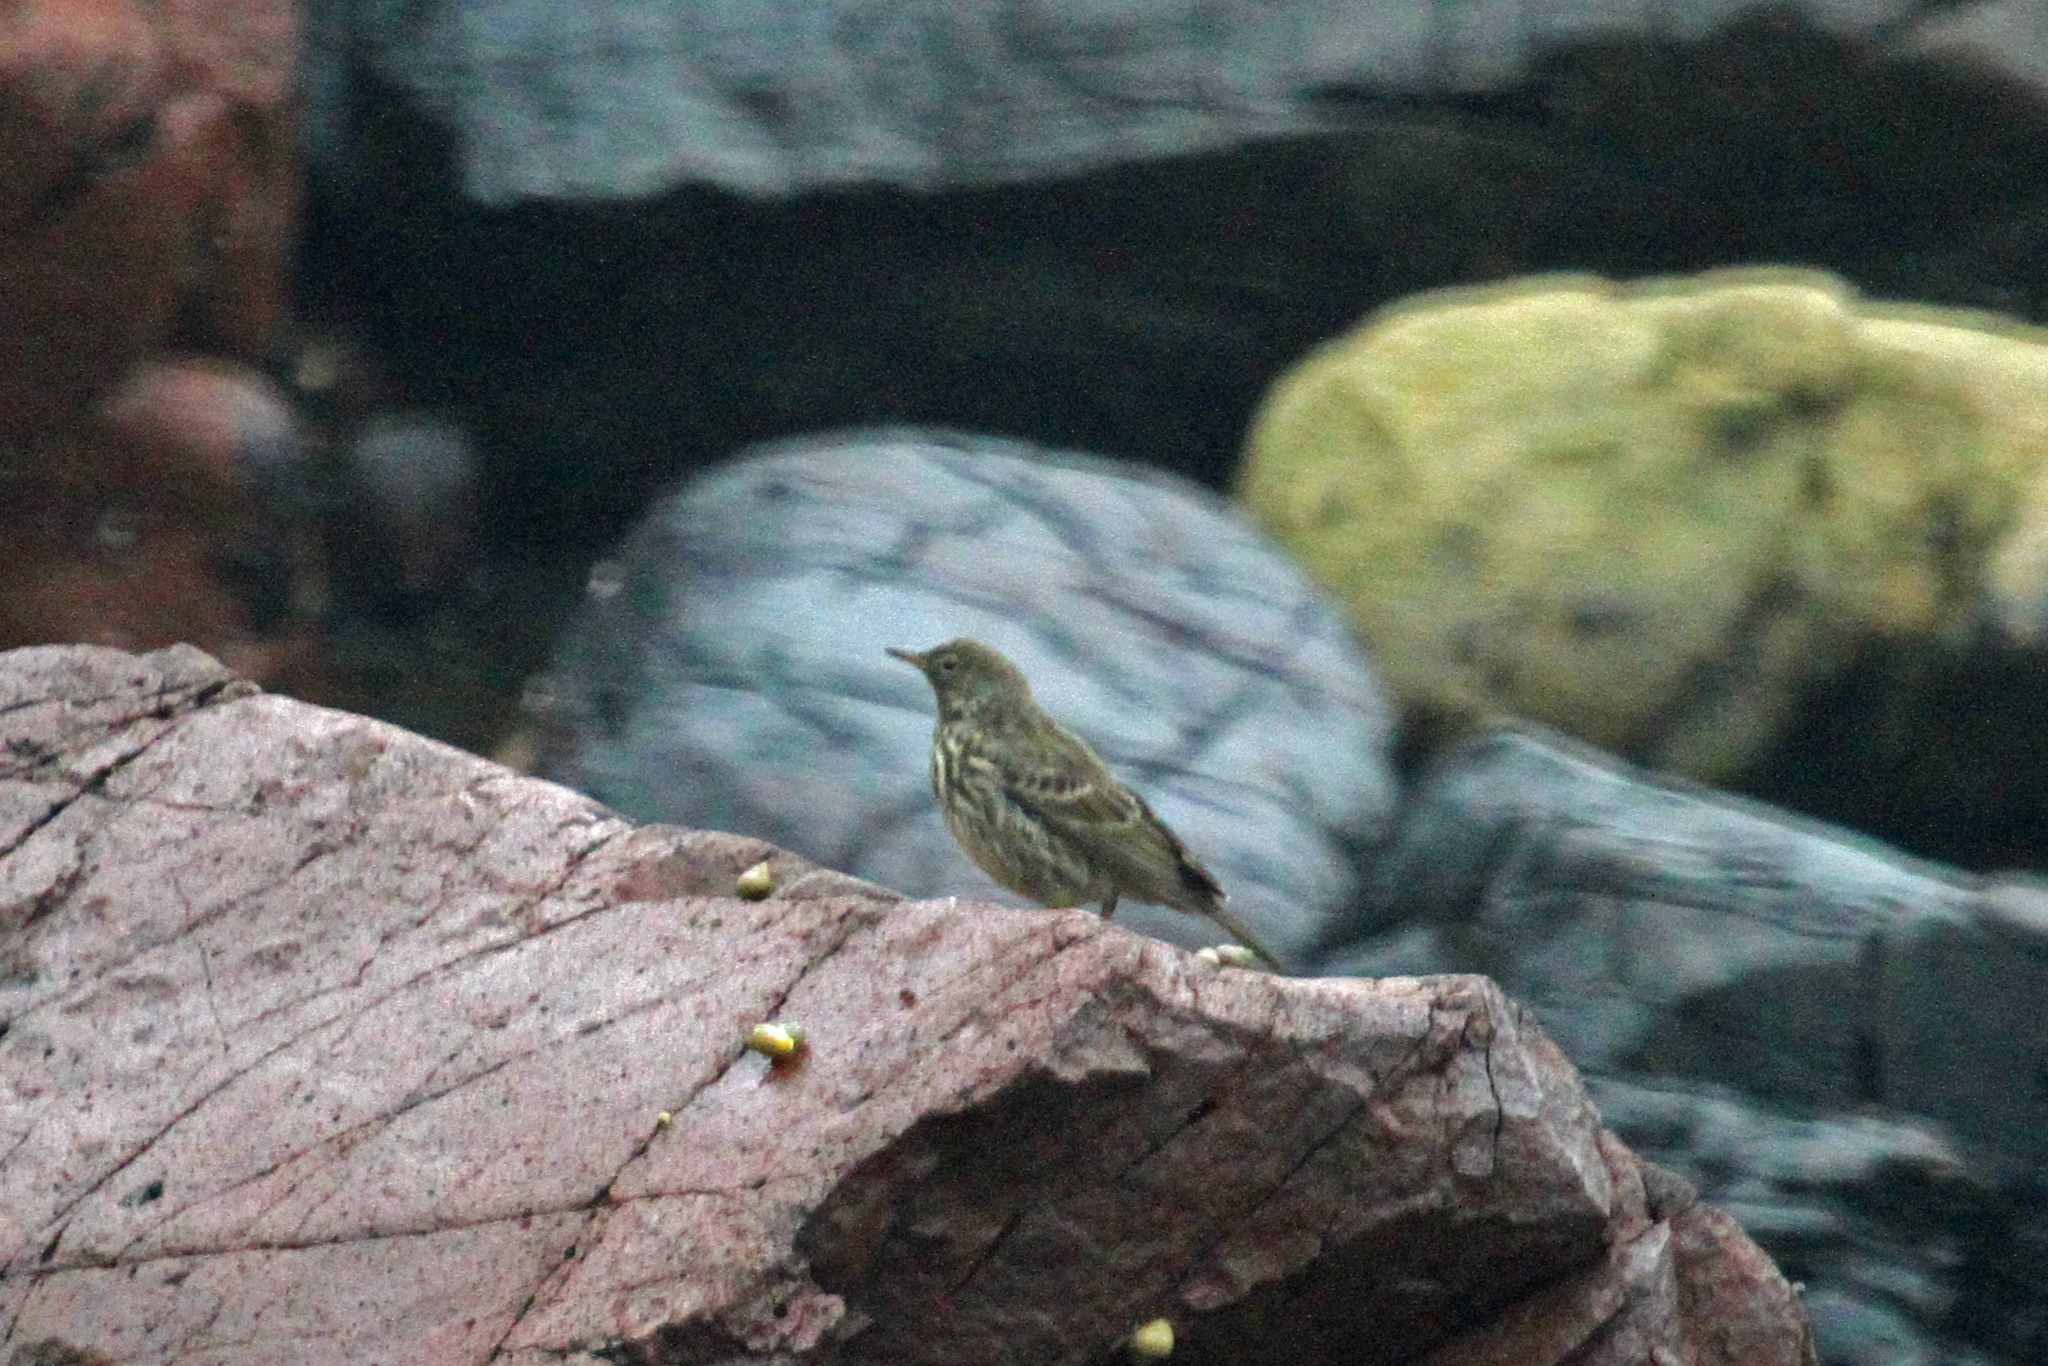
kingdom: Animalia
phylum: Chordata
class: Aves
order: Passeriformes
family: Motacillidae
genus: Anthus
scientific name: Anthus petrosus
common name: Eurasian rock pipit
